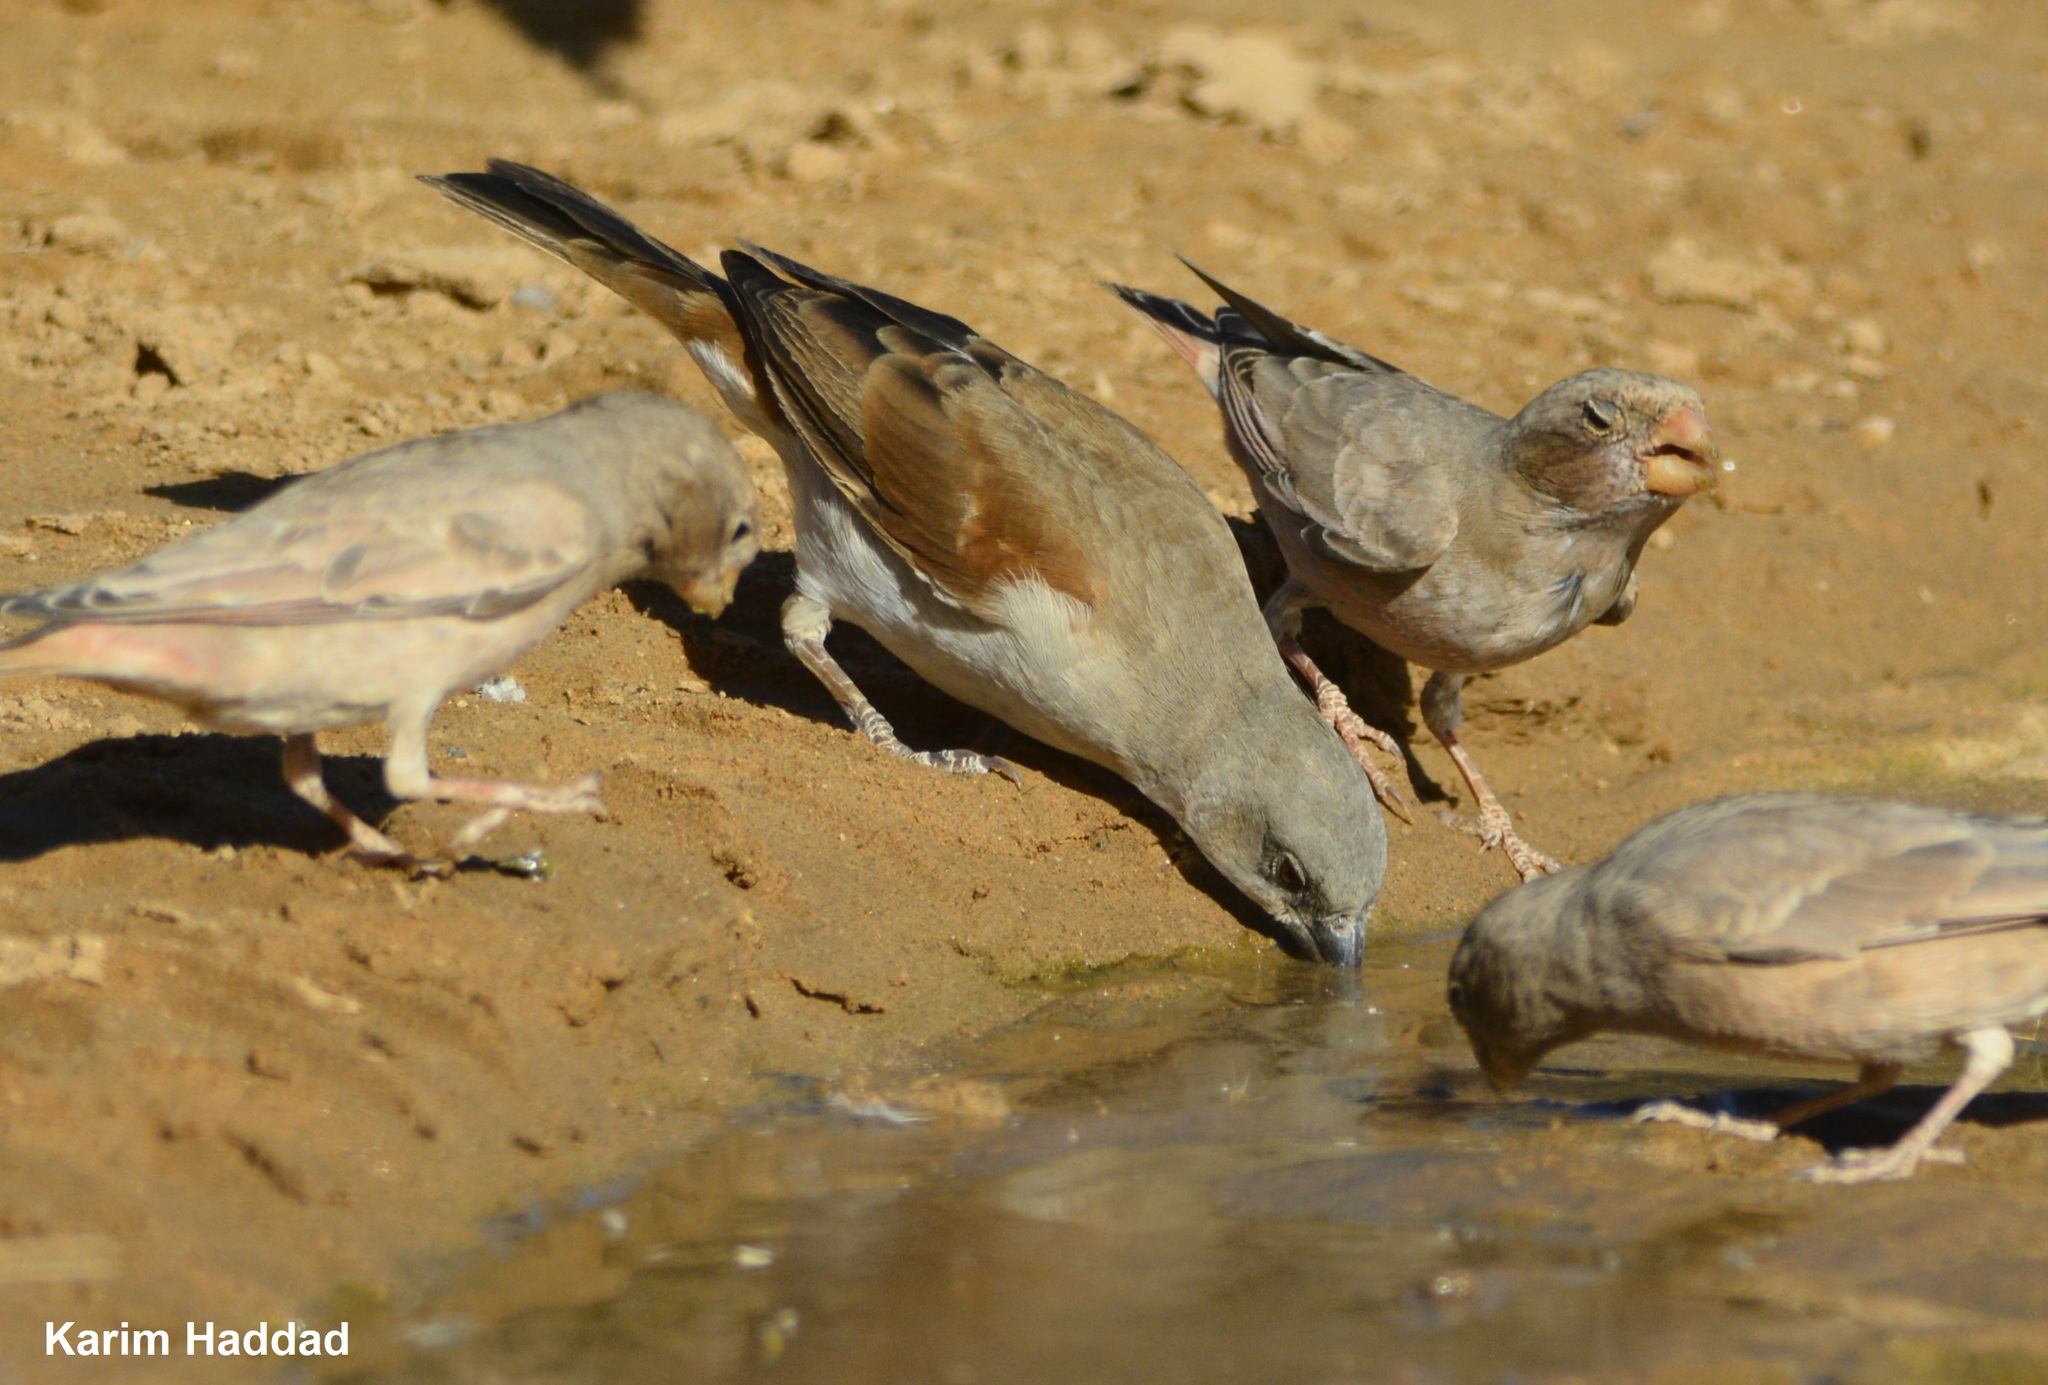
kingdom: Animalia
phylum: Chordata
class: Aves
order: Passeriformes
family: Passeridae
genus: Passer
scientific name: Passer griseus
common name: Northern grey-headed sparrow
